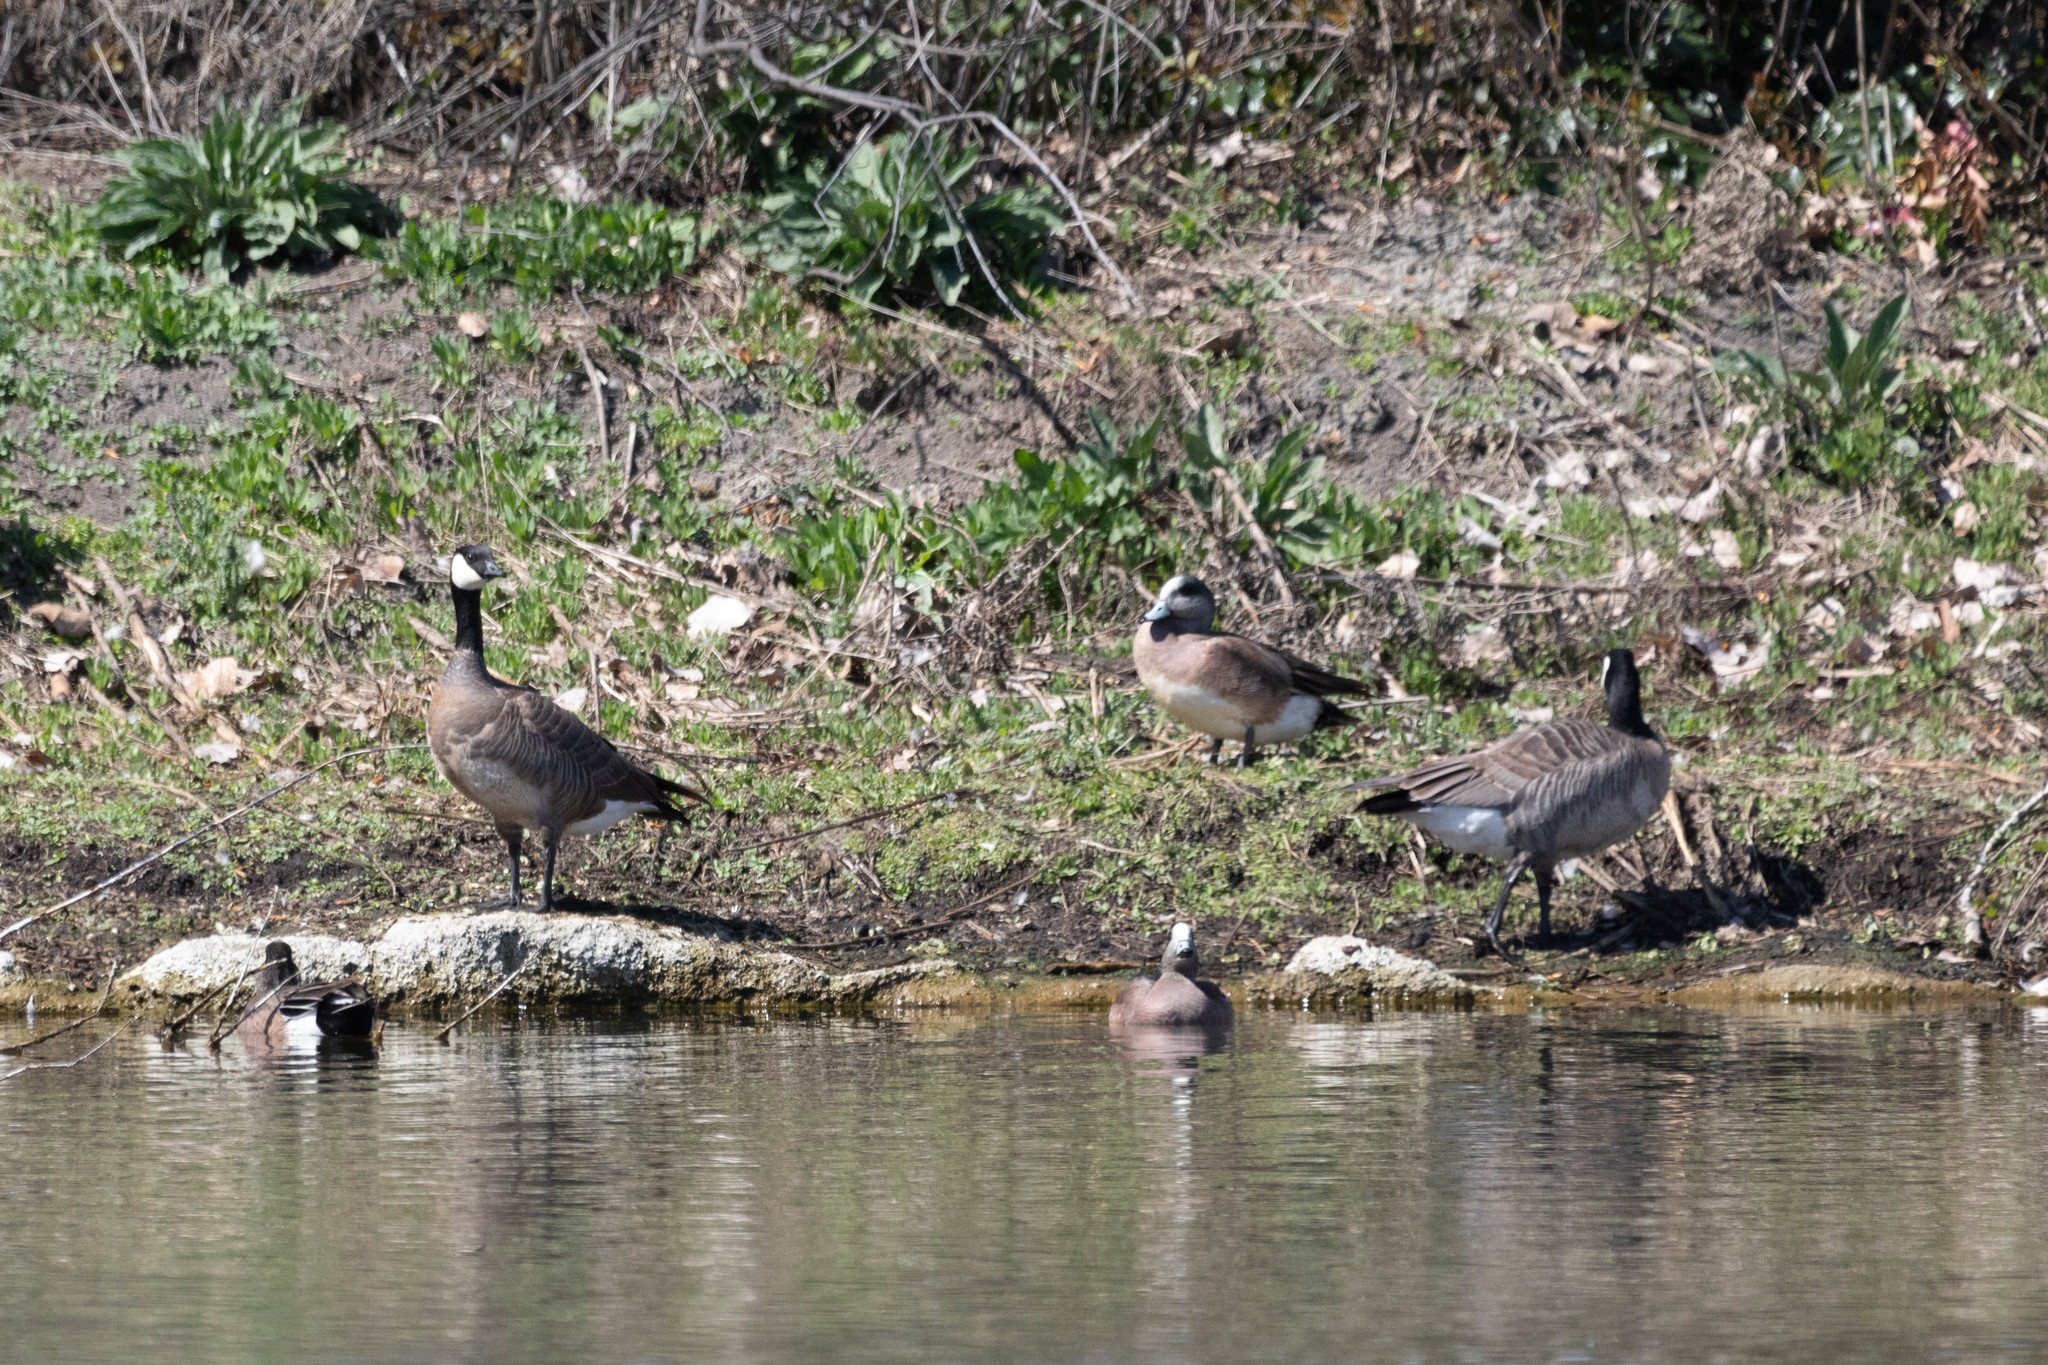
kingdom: Animalia
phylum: Chordata
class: Aves
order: Anseriformes
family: Anatidae
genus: Branta
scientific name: Branta hutchinsii
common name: Cackling goose
